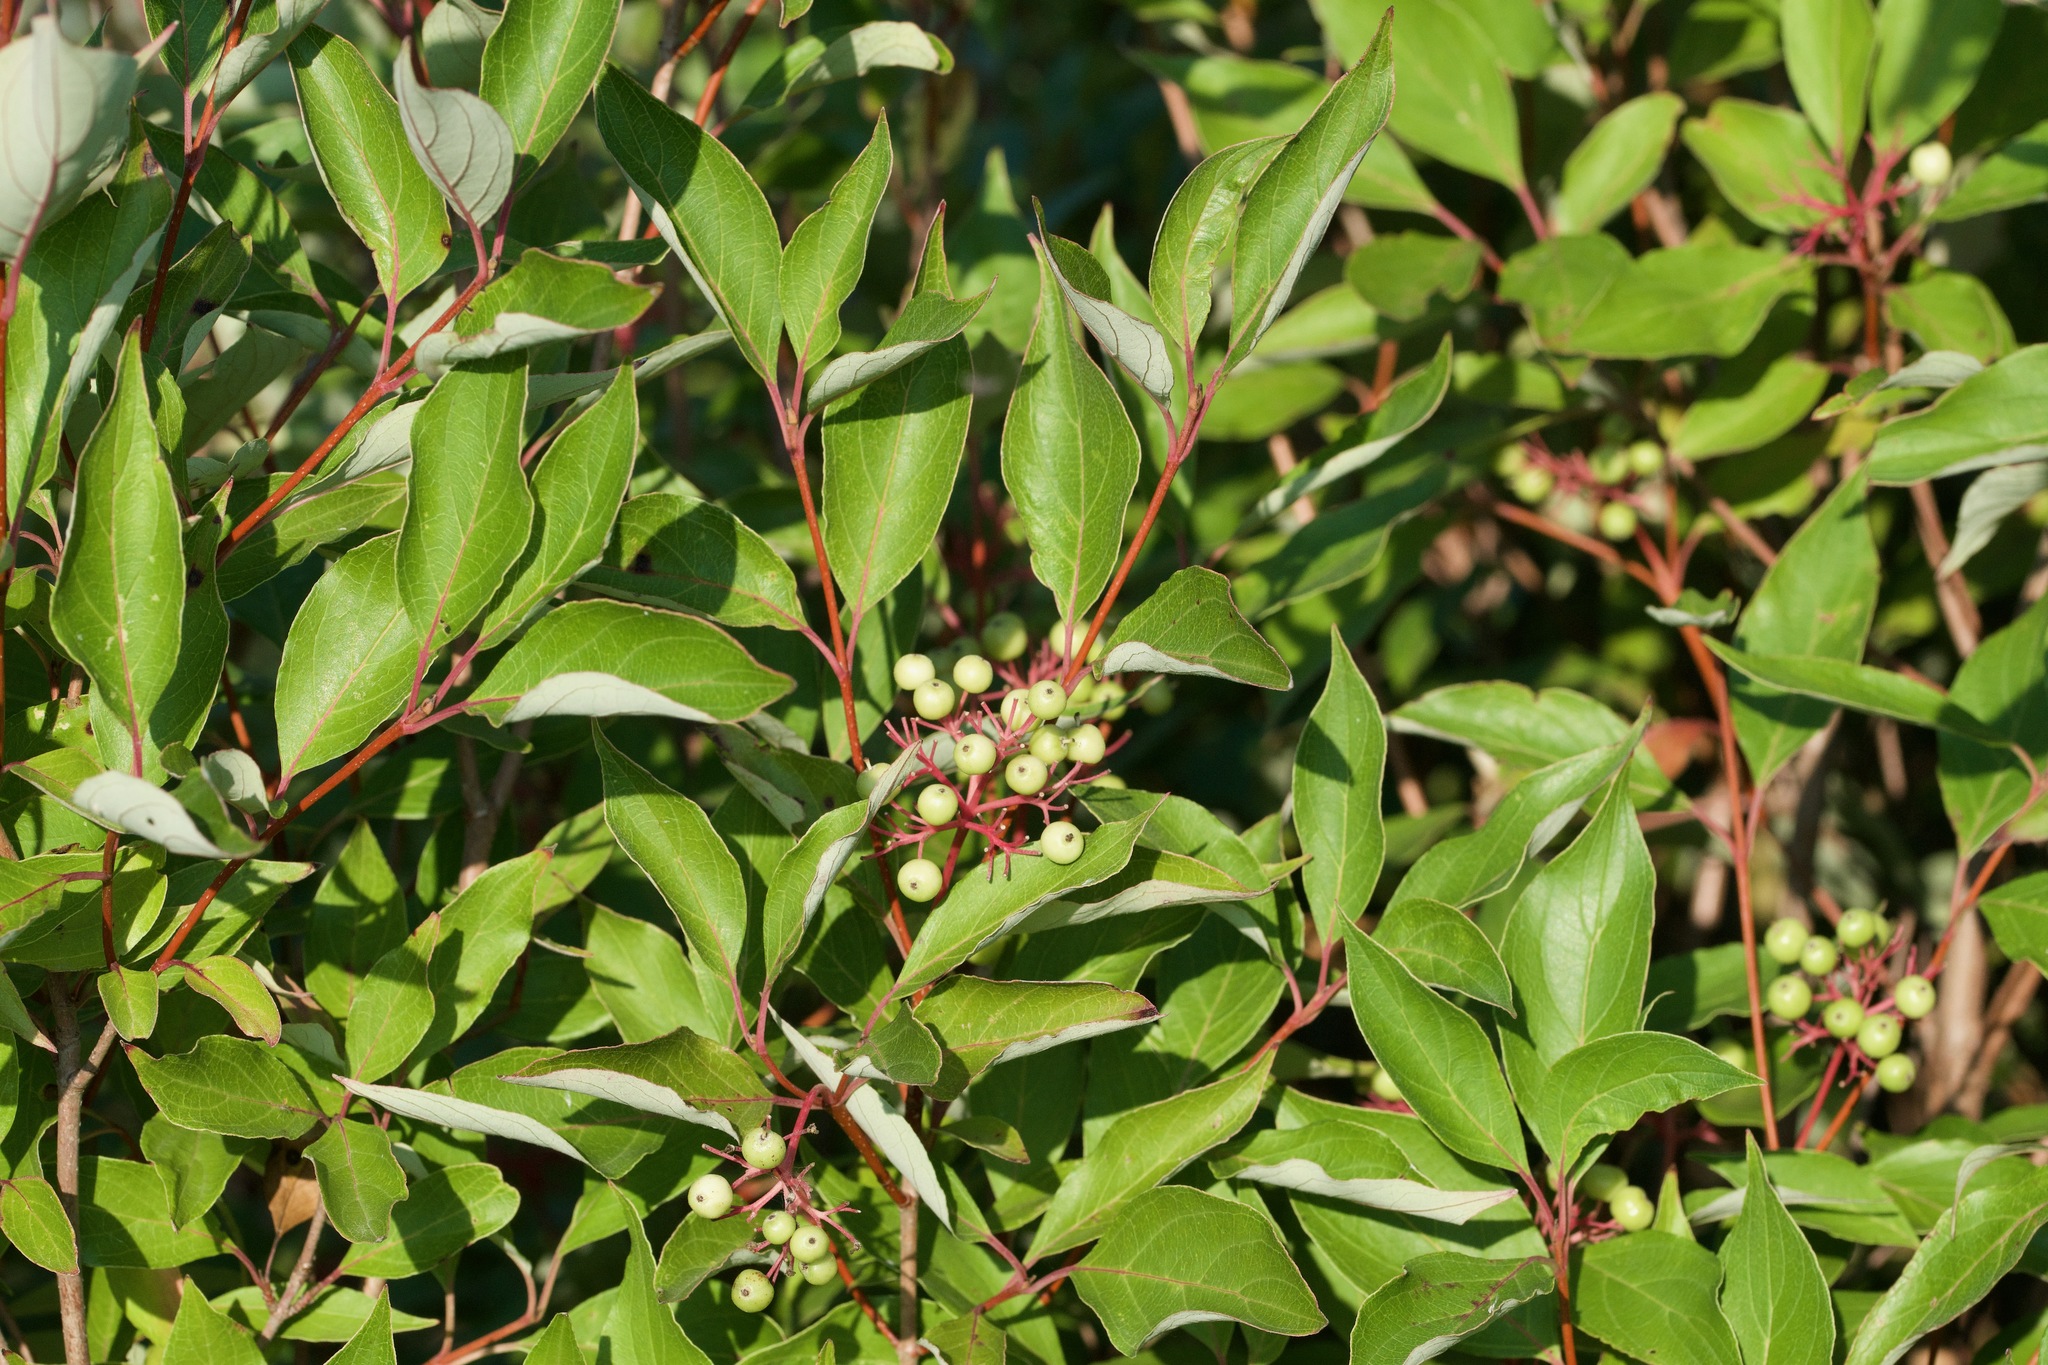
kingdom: Plantae
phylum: Tracheophyta
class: Magnoliopsida
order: Cornales
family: Cornaceae
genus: Cornus
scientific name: Cornus racemosa
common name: Panicled dogwood
